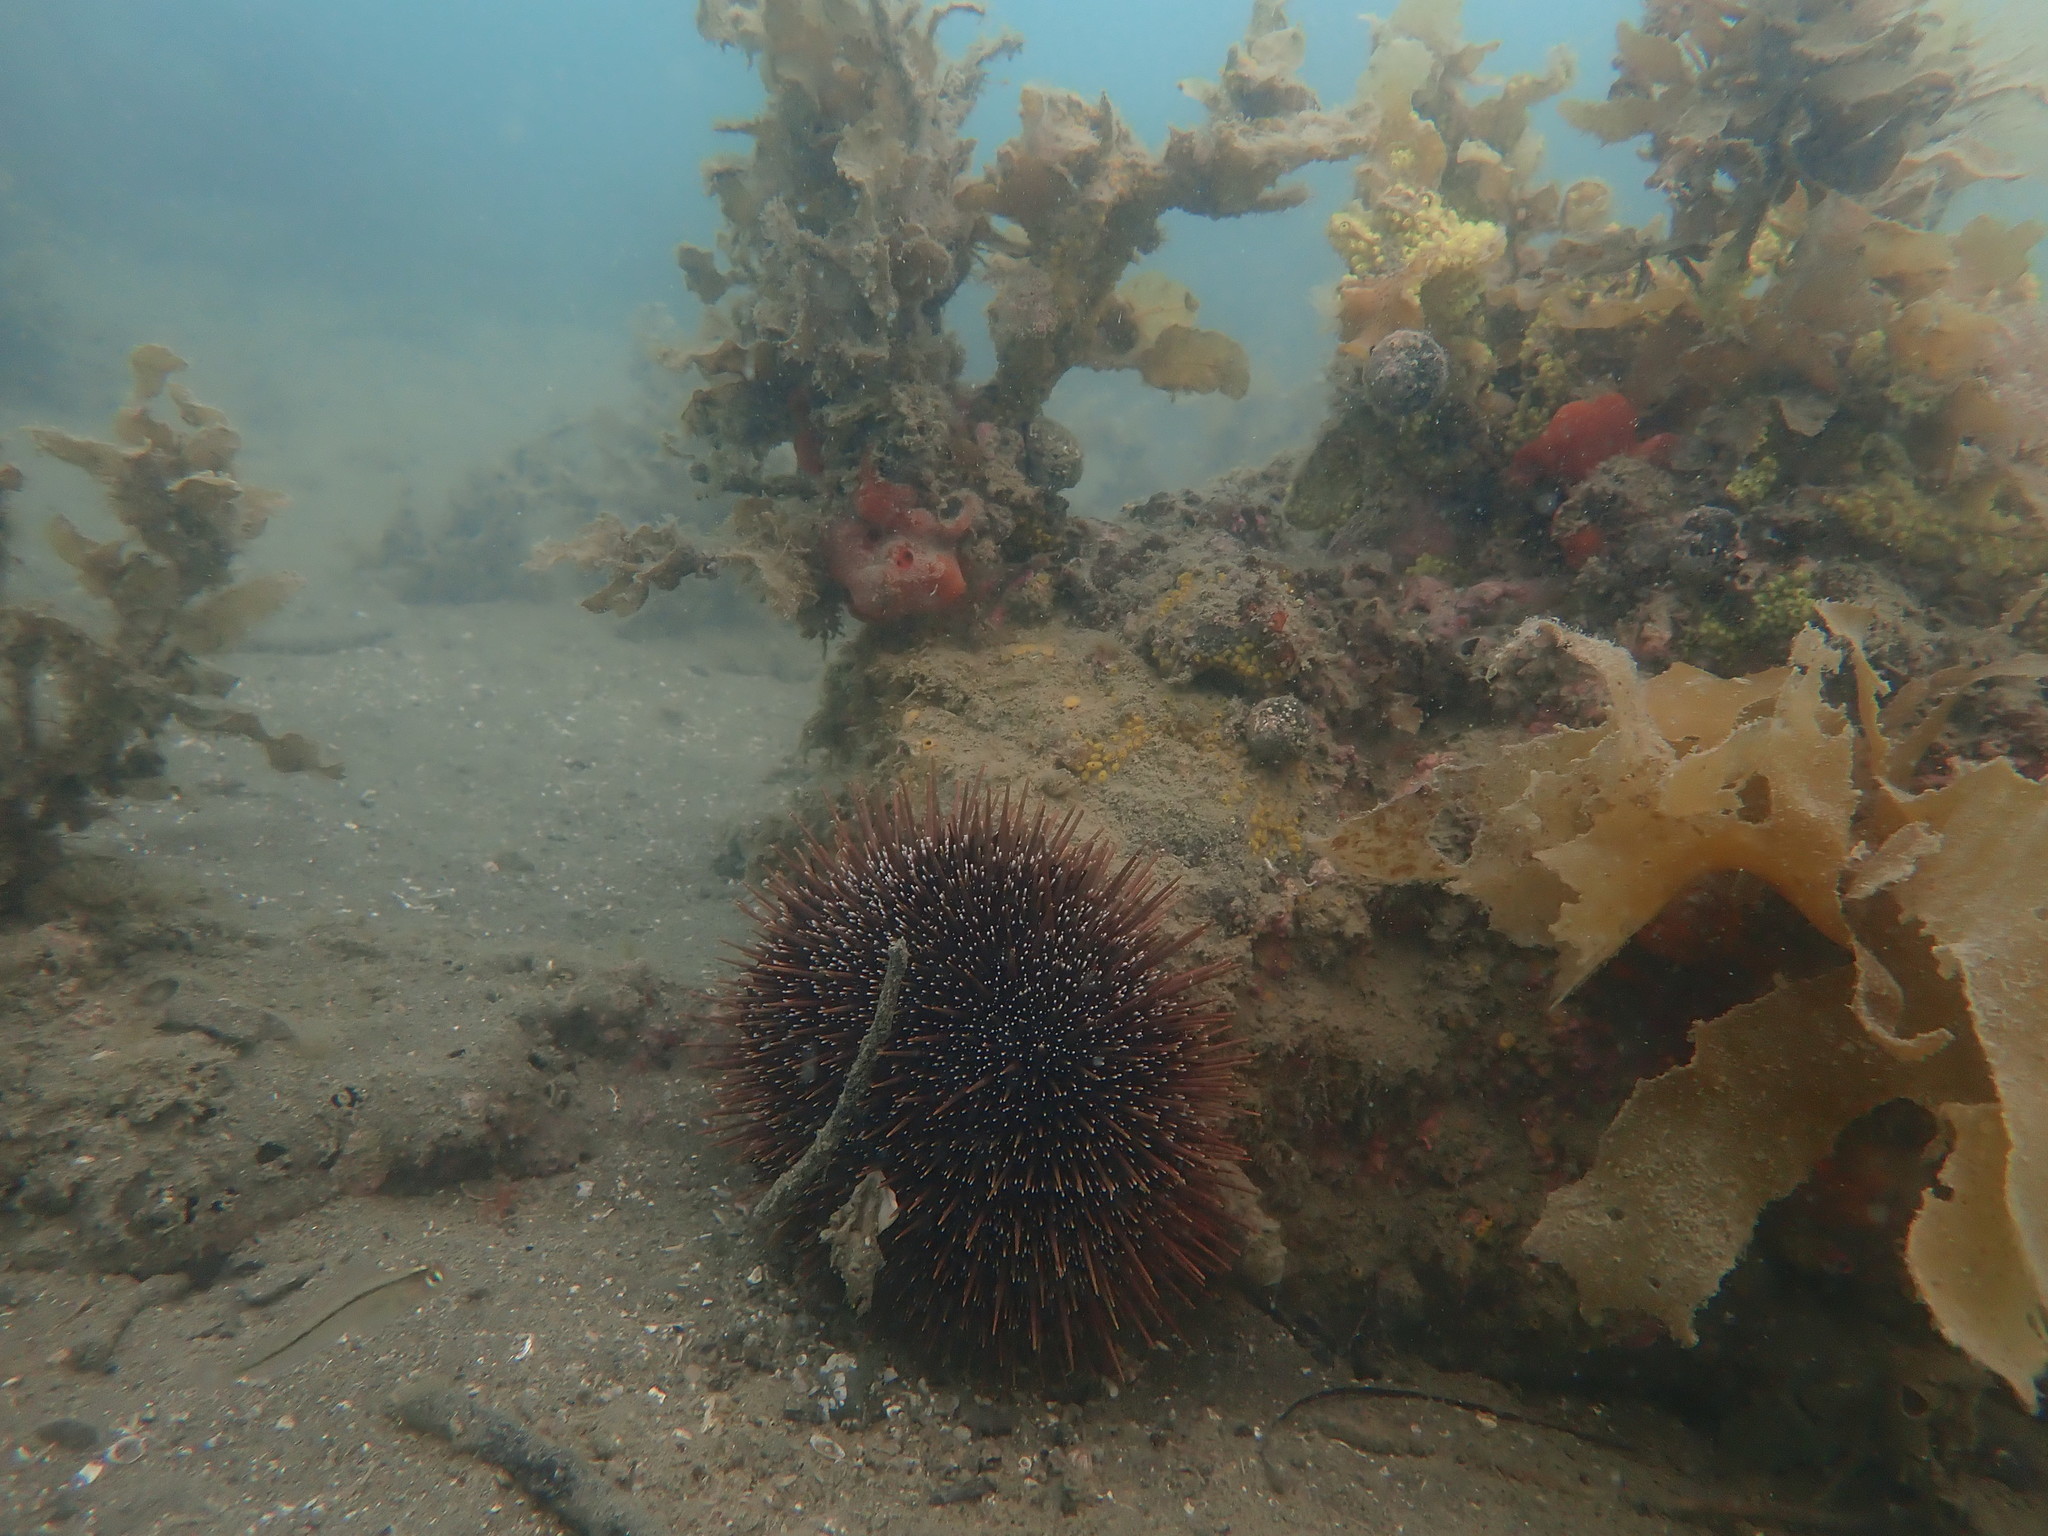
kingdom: Animalia
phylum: Echinodermata
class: Echinoidea
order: Camarodonta
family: Echinometridae
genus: Evechinus
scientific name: Evechinus chloroticus
